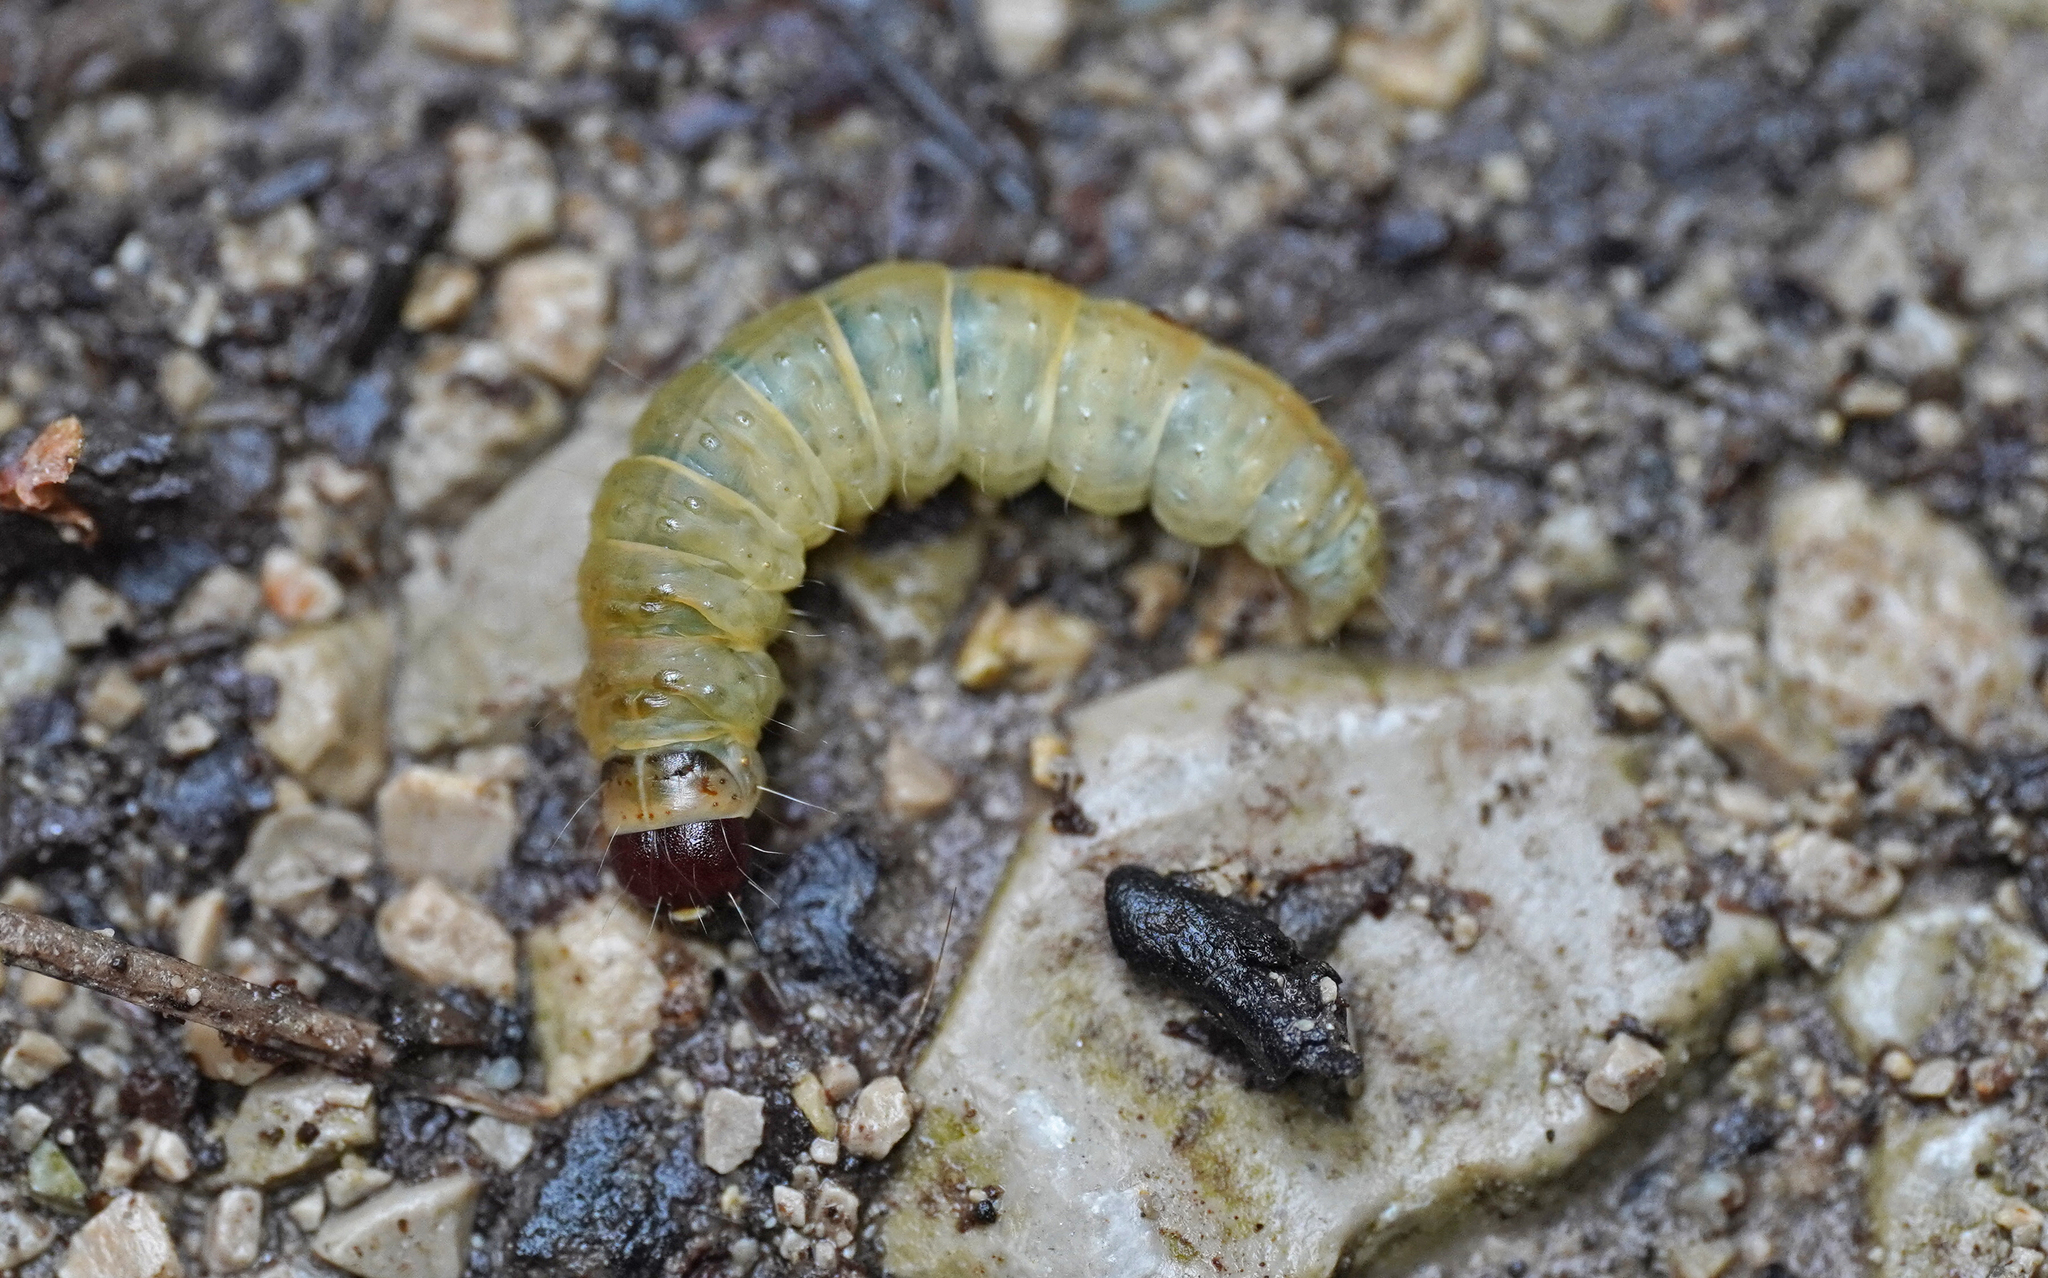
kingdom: Animalia
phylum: Arthropoda
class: Insecta
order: Lepidoptera
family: Lypusidae
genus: Dasystoma
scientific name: Dasystoma salicella
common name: Blueberry leafroller
